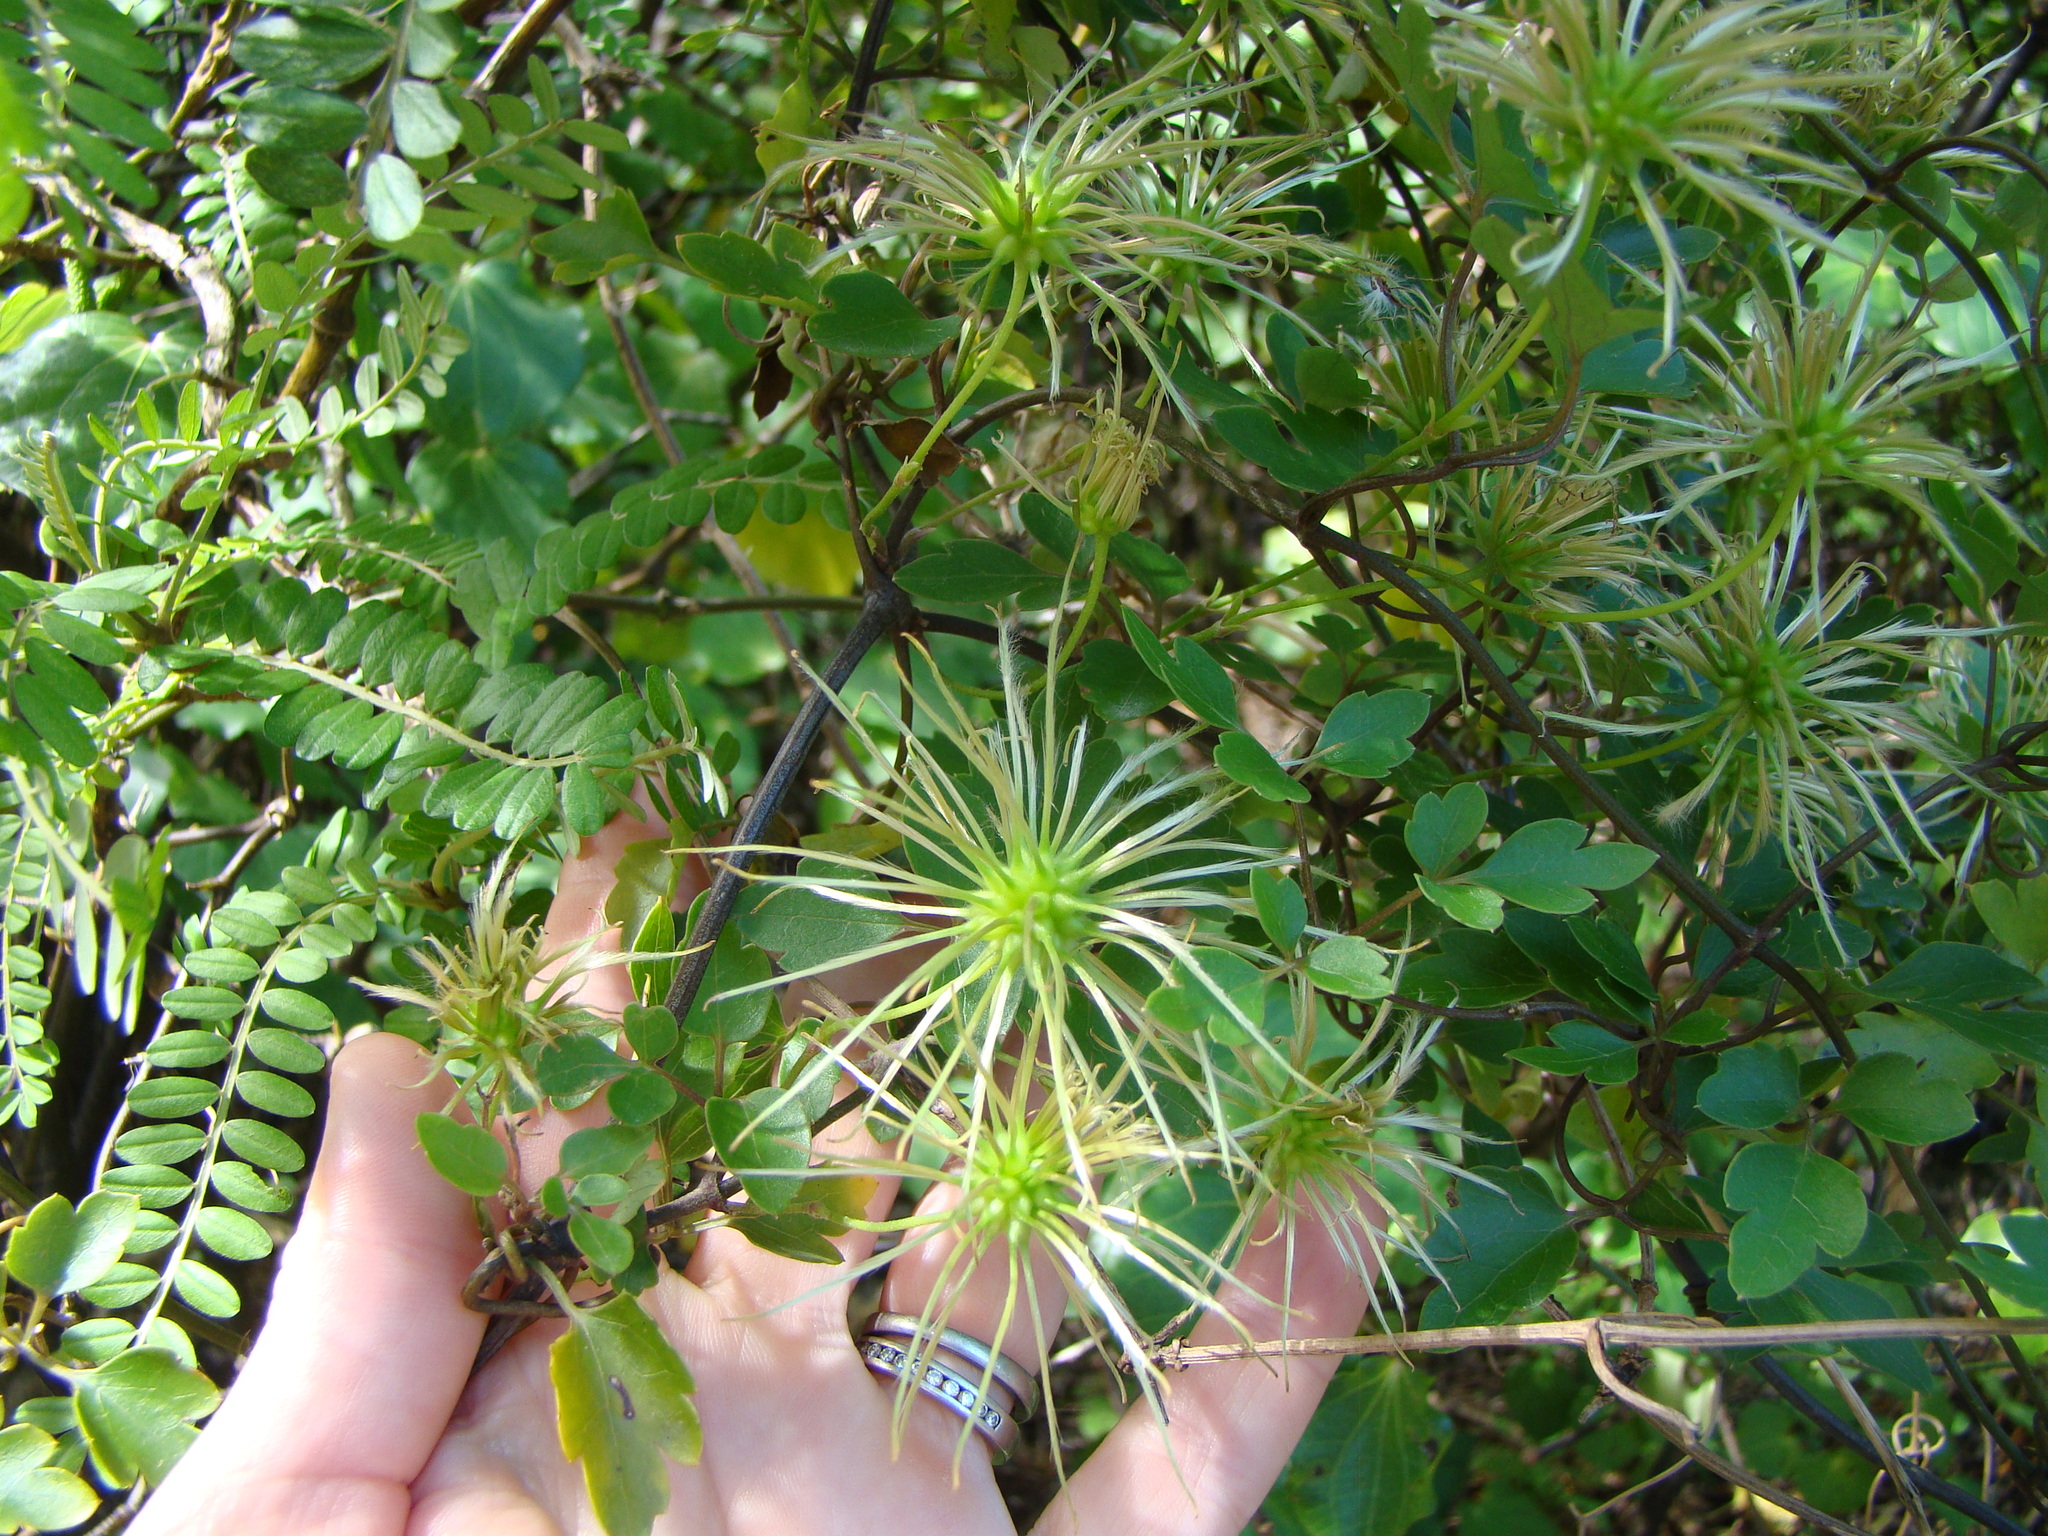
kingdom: Plantae
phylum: Tracheophyta
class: Magnoliopsida
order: Ranunculales
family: Ranunculaceae
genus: Clematis
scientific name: Clematis forsteri
